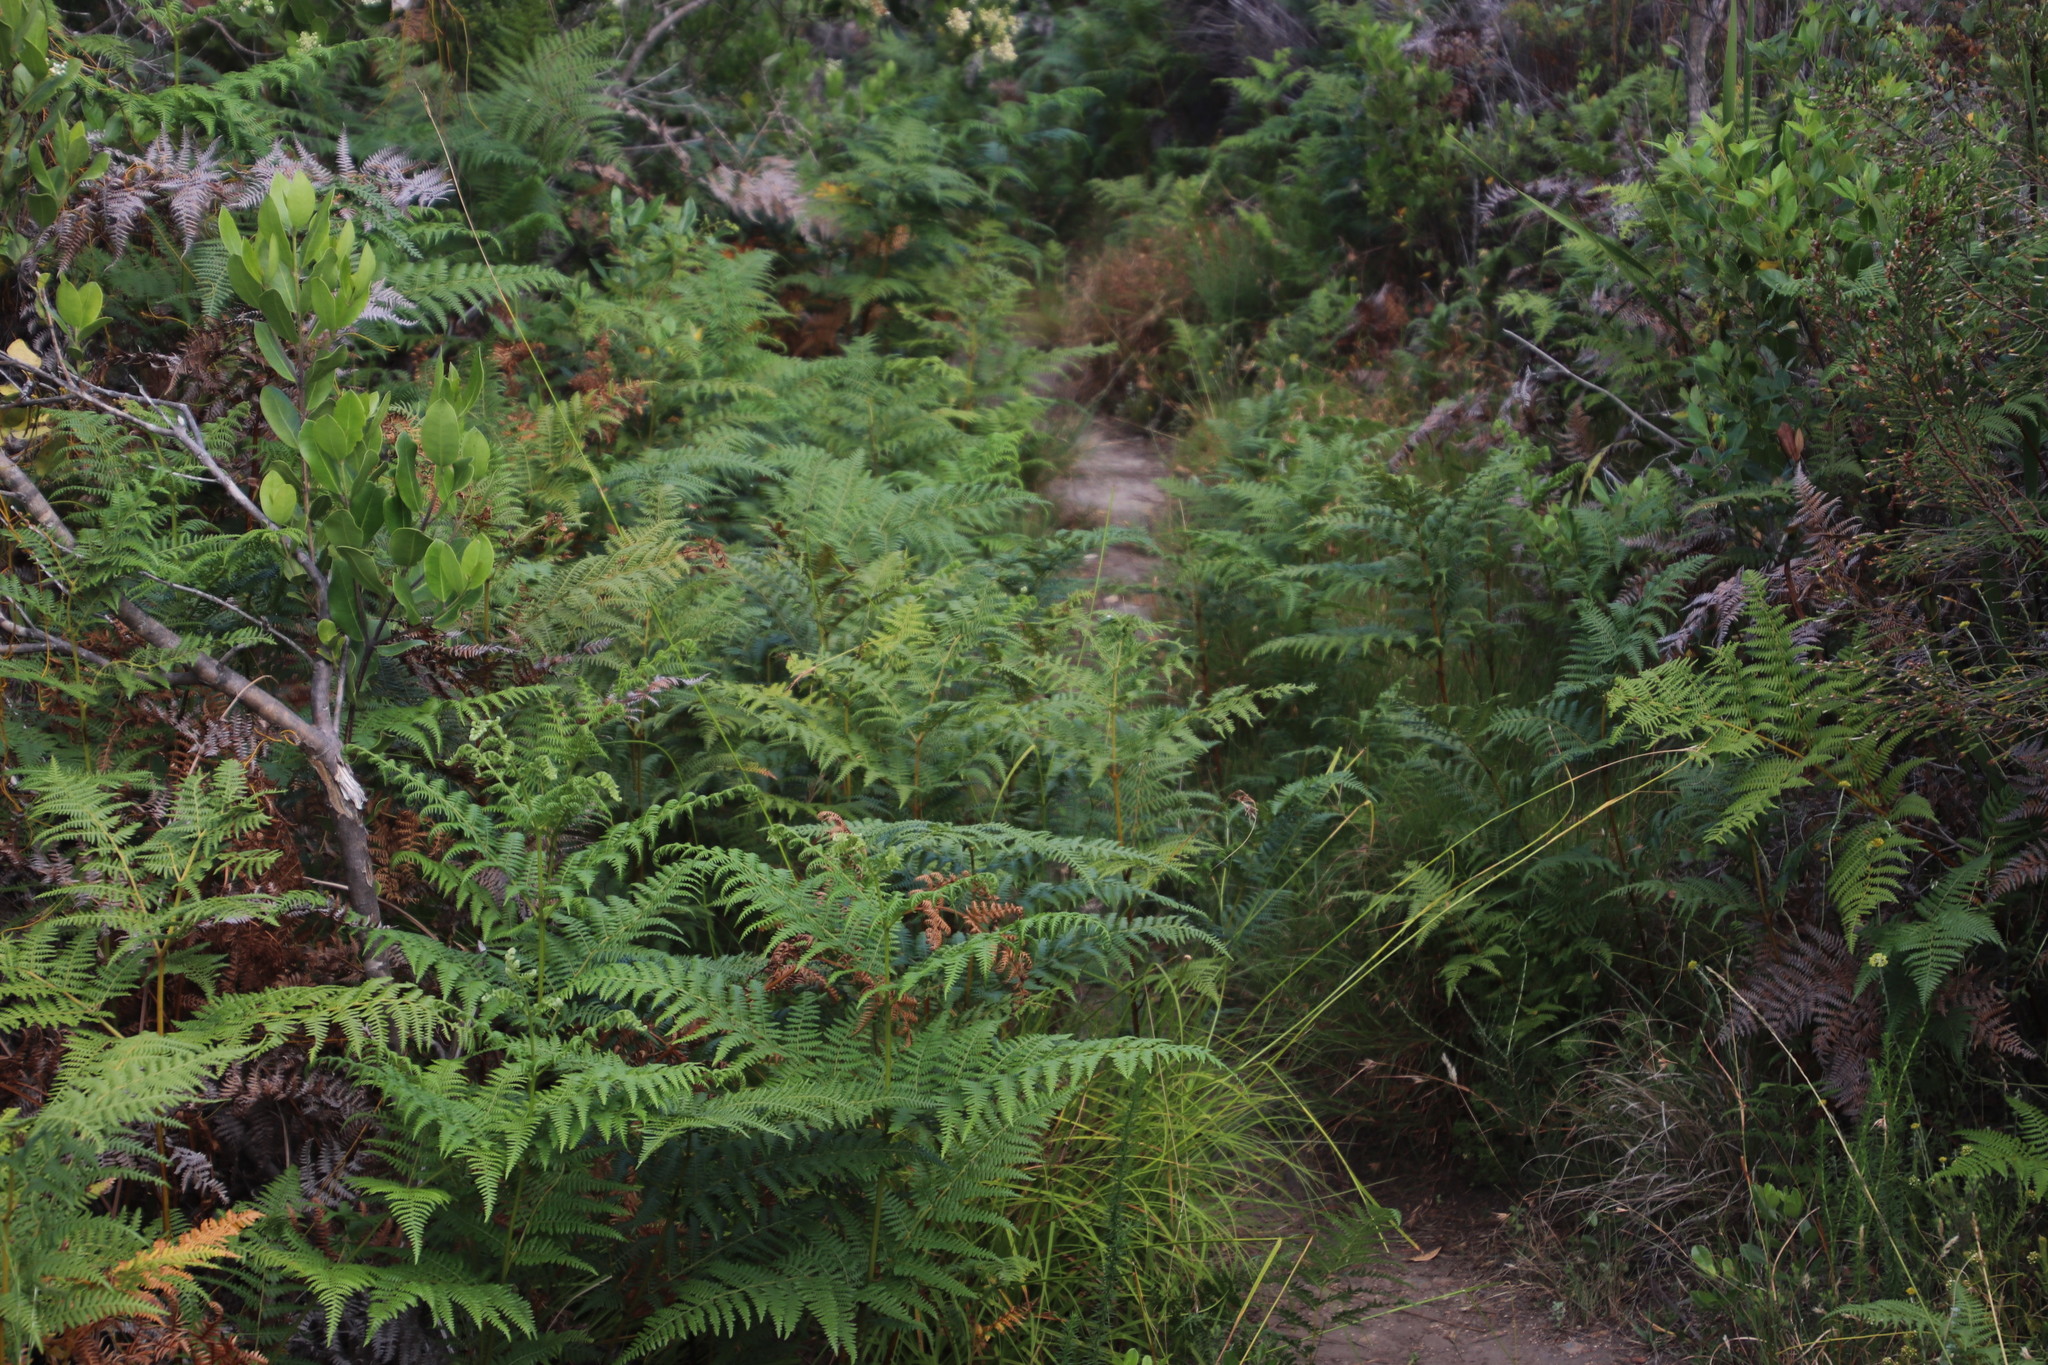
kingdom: Plantae
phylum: Tracheophyta
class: Polypodiopsida
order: Polypodiales
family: Dennstaedtiaceae
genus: Pteridium
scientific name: Pteridium aquilinum
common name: Bracken
